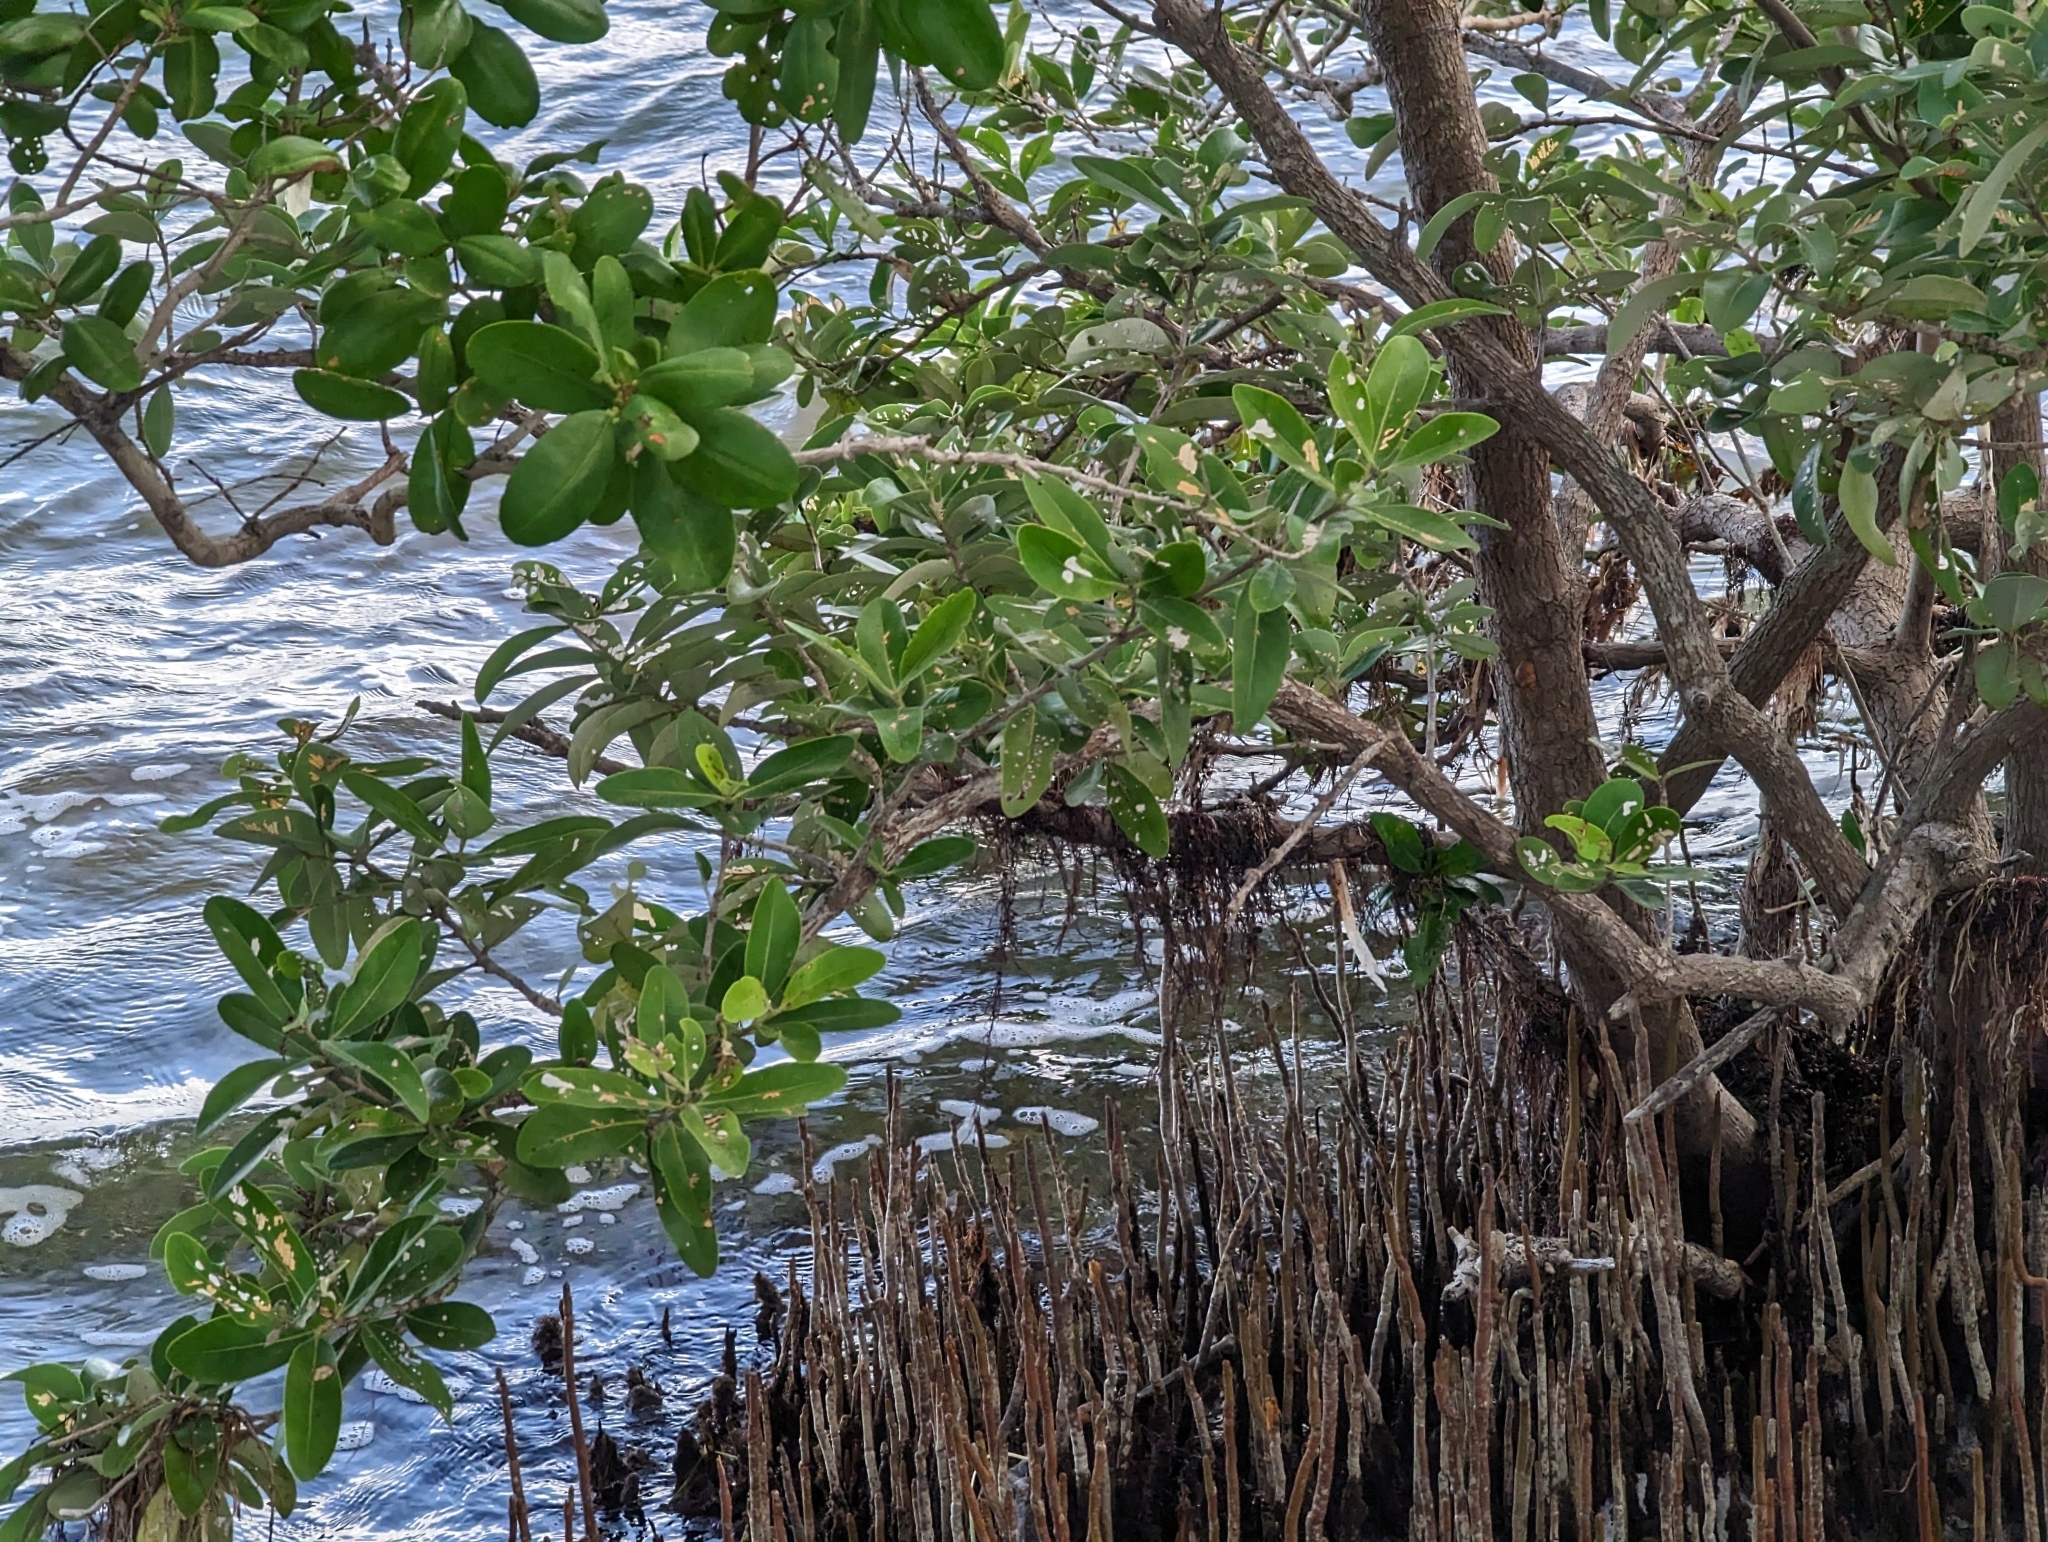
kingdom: Plantae
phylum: Tracheophyta
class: Magnoliopsida
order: Lamiales
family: Acanthaceae
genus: Avicennia
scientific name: Avicennia germinans
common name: Black mangrove
